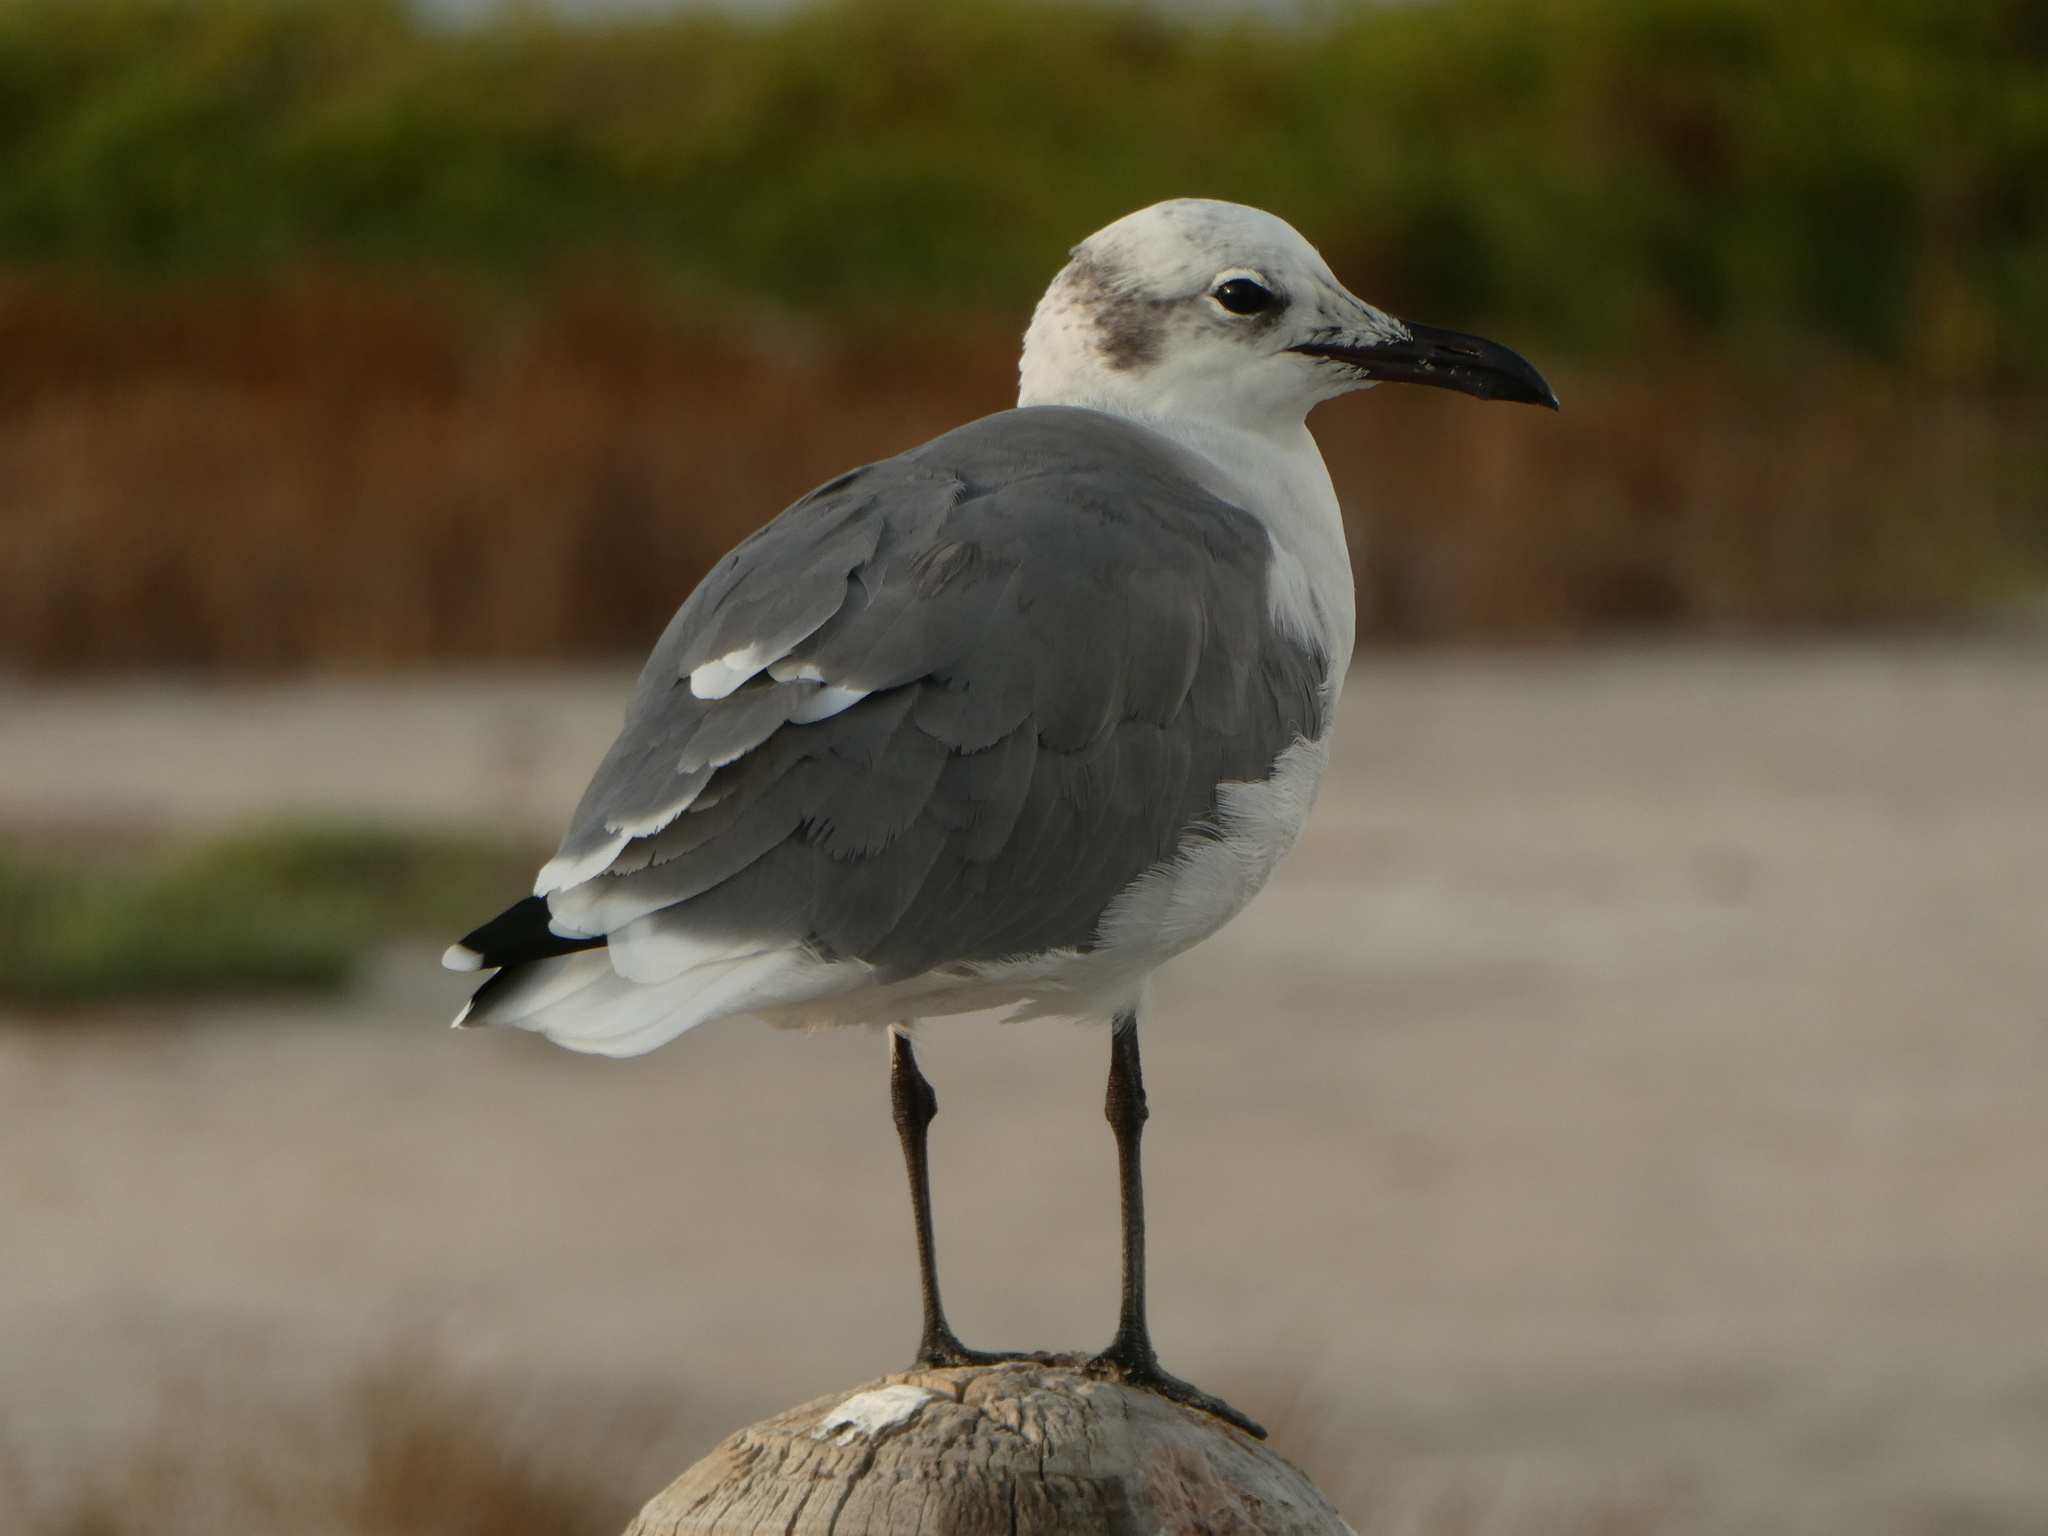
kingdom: Animalia
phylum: Chordata
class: Aves
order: Charadriiformes
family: Laridae
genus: Leucophaeus
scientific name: Leucophaeus atricilla
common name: Laughing gull
